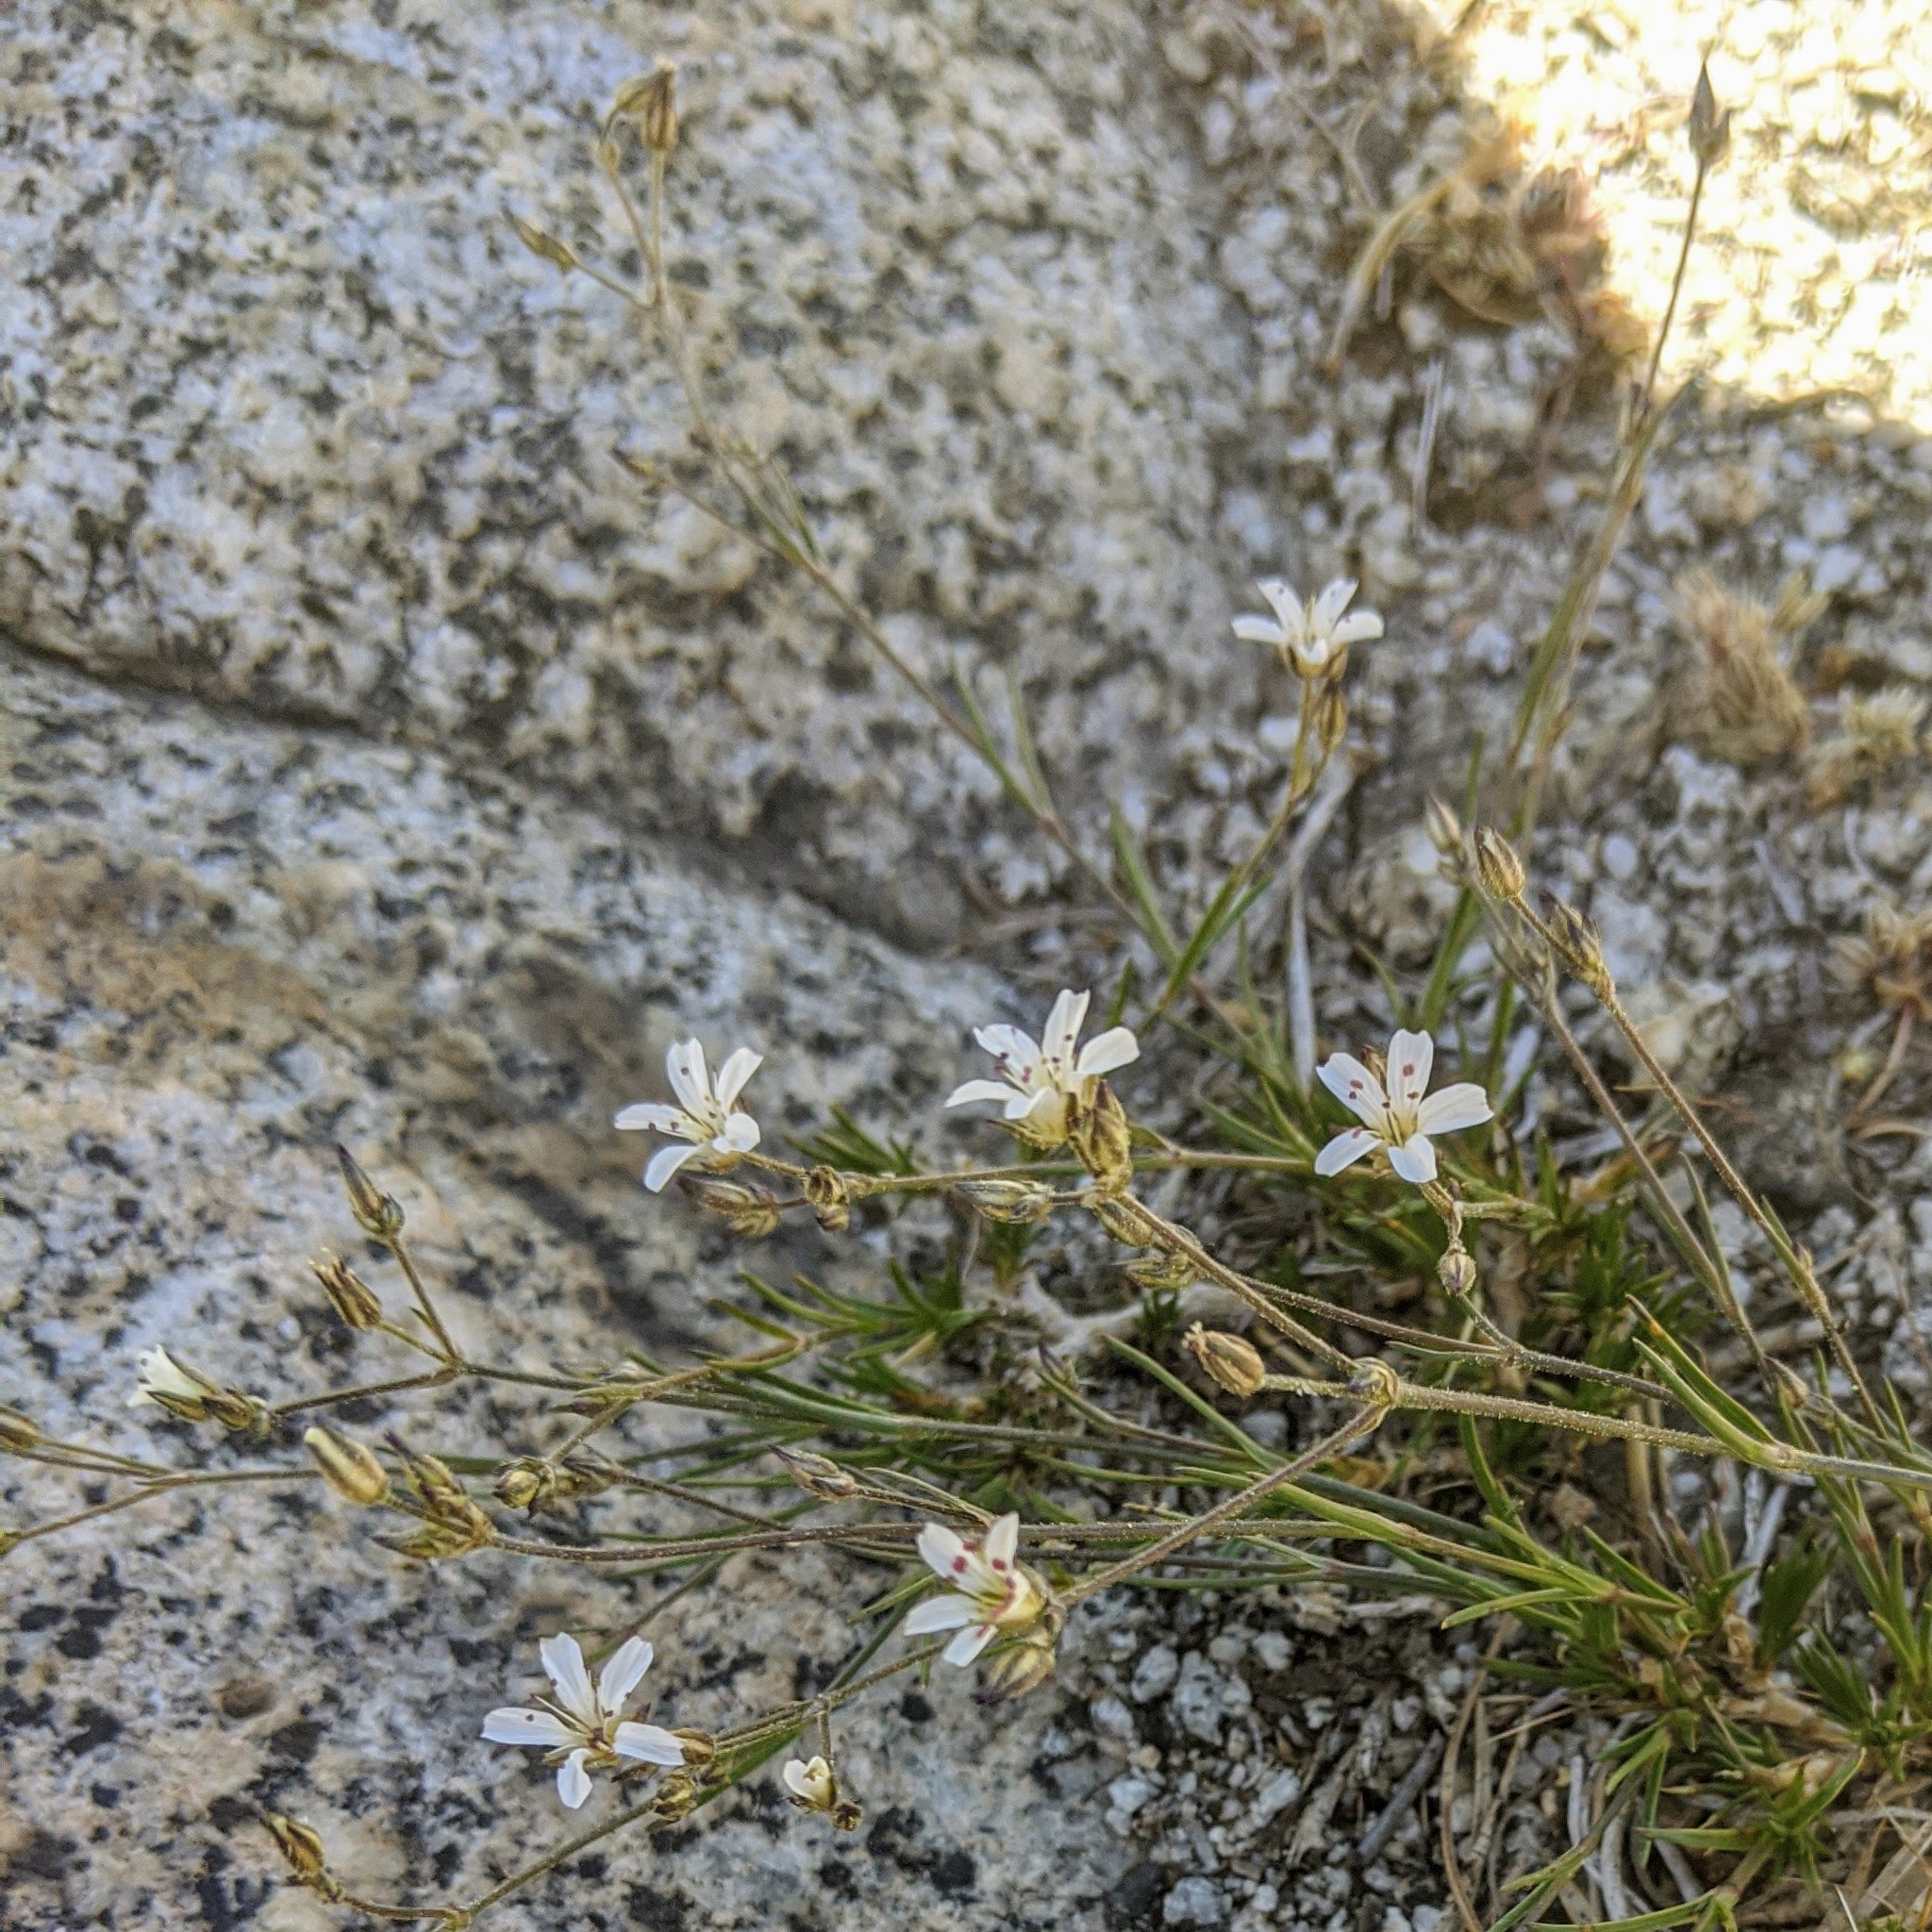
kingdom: Plantae
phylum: Tracheophyta
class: Magnoliopsida
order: Caryophyllales
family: Caryophyllaceae
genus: Eremogone
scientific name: Eremogone kingii
